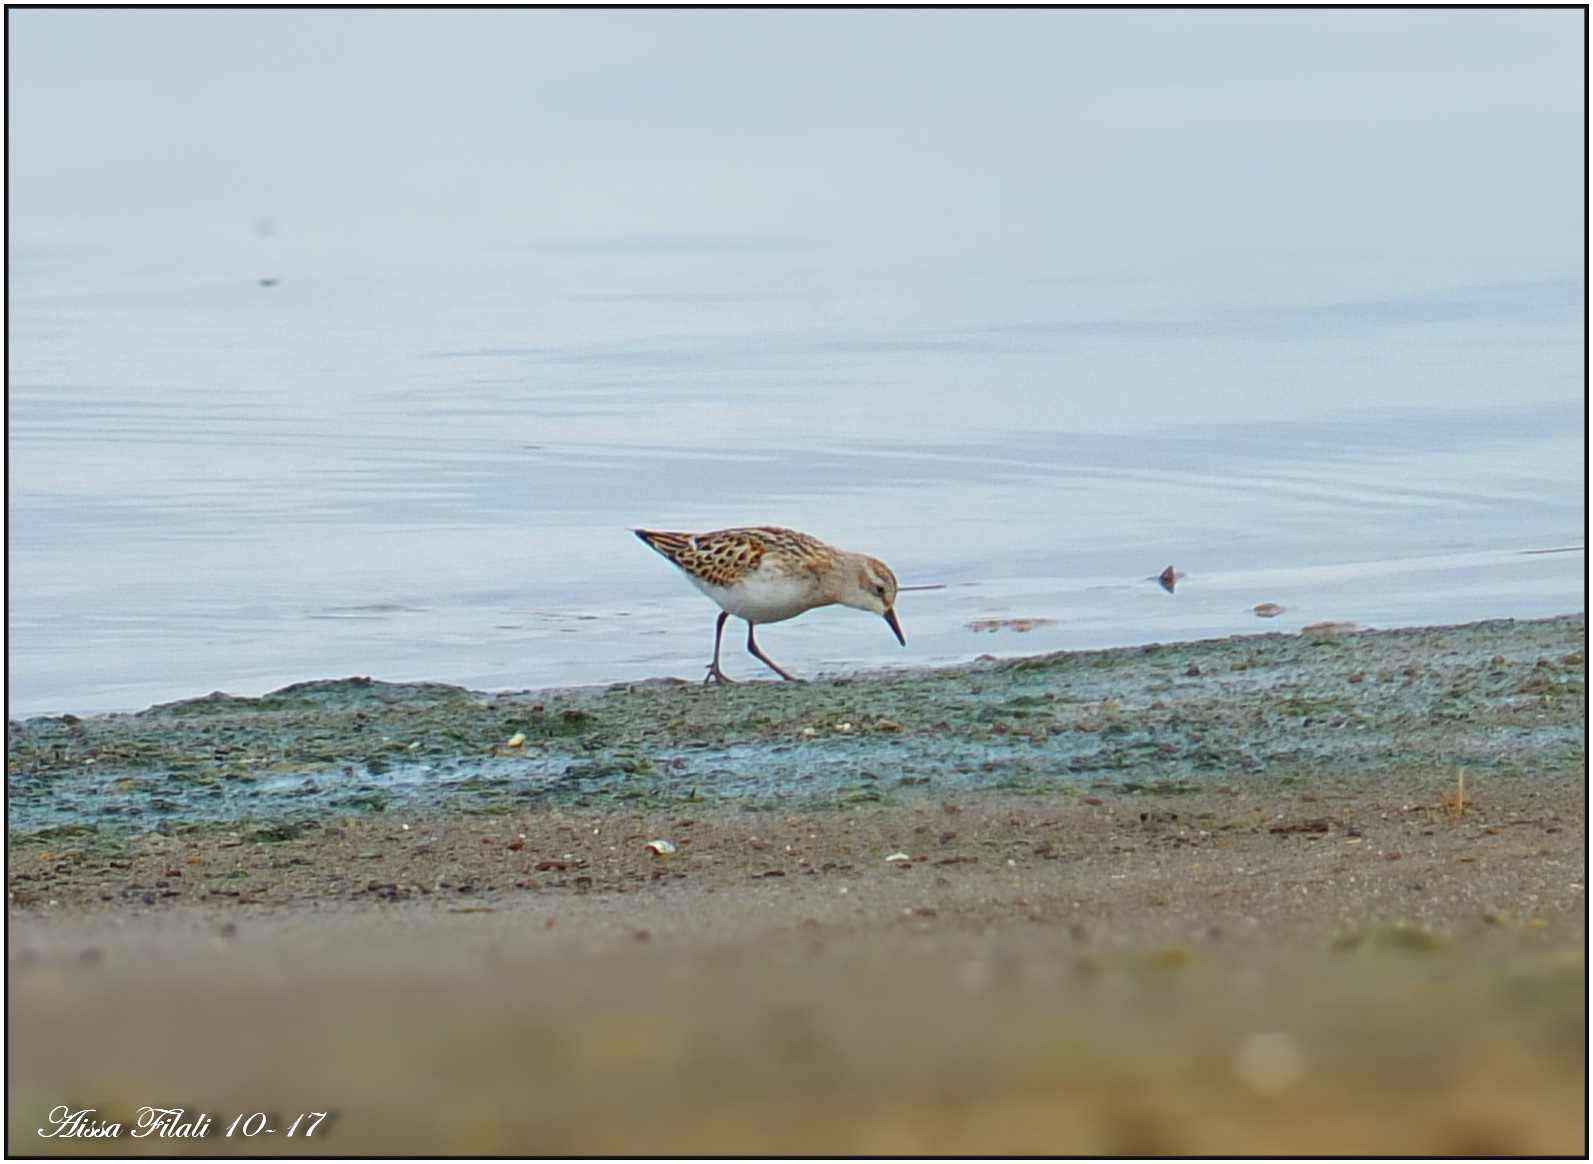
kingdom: Animalia
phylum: Chordata
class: Aves
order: Charadriiformes
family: Scolopacidae
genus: Calidris
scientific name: Calidris minuta
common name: Little stint
